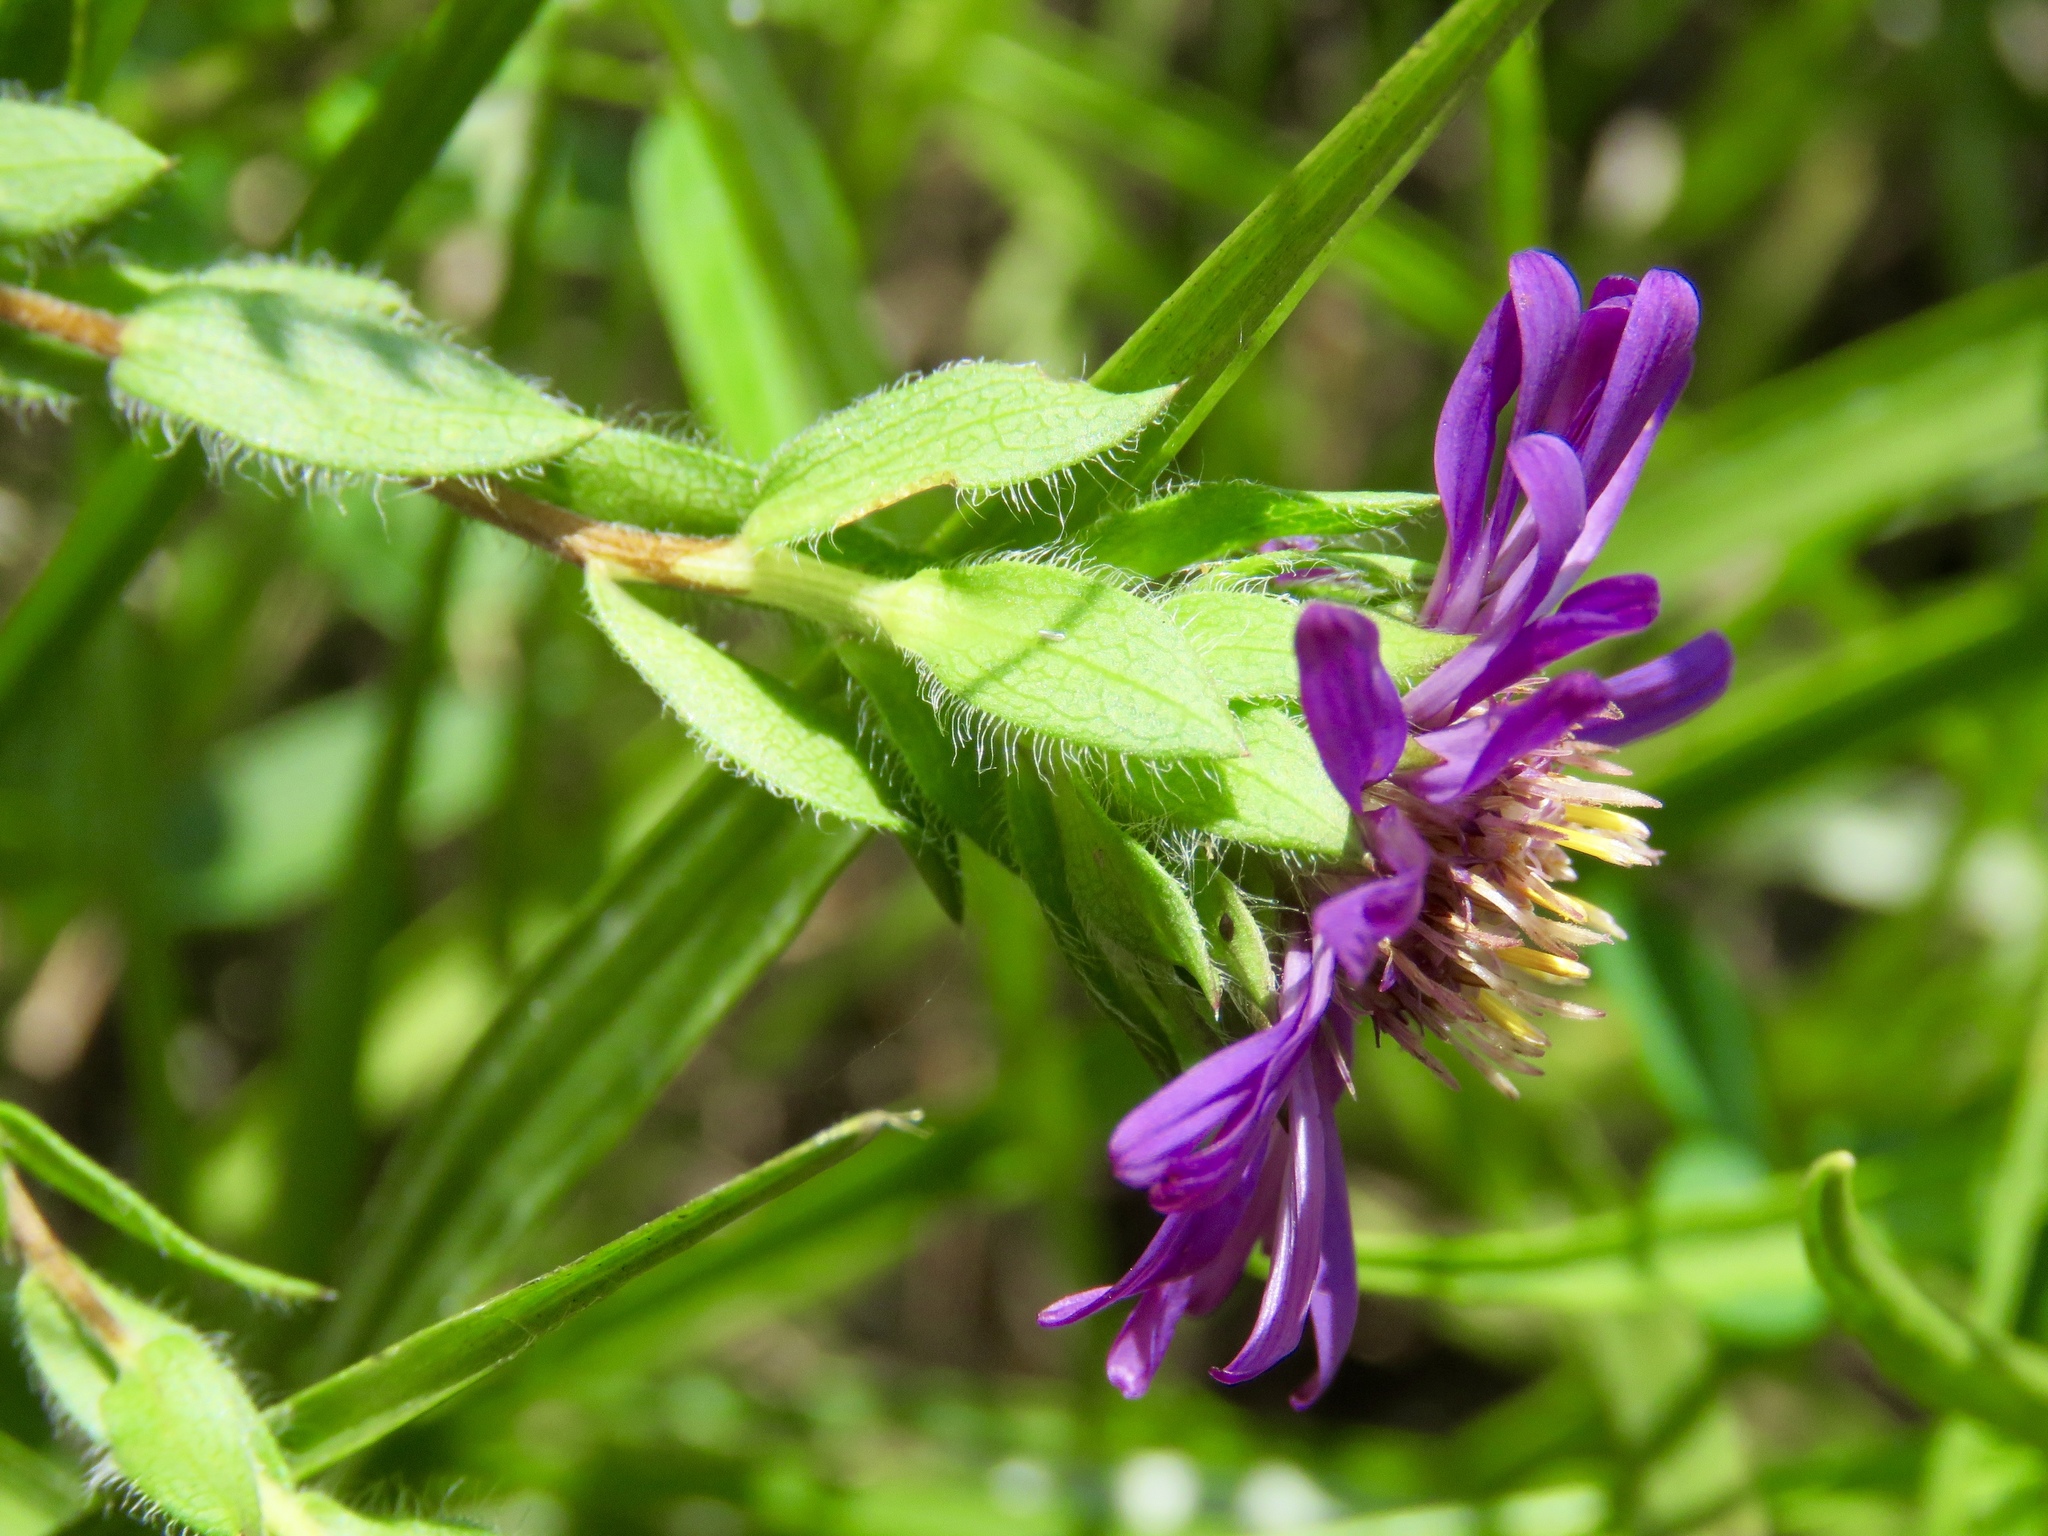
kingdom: Plantae
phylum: Tracheophyta
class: Magnoliopsida
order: Asterales
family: Asteraceae
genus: Symphyotrichum
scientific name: Symphyotrichum pratense
